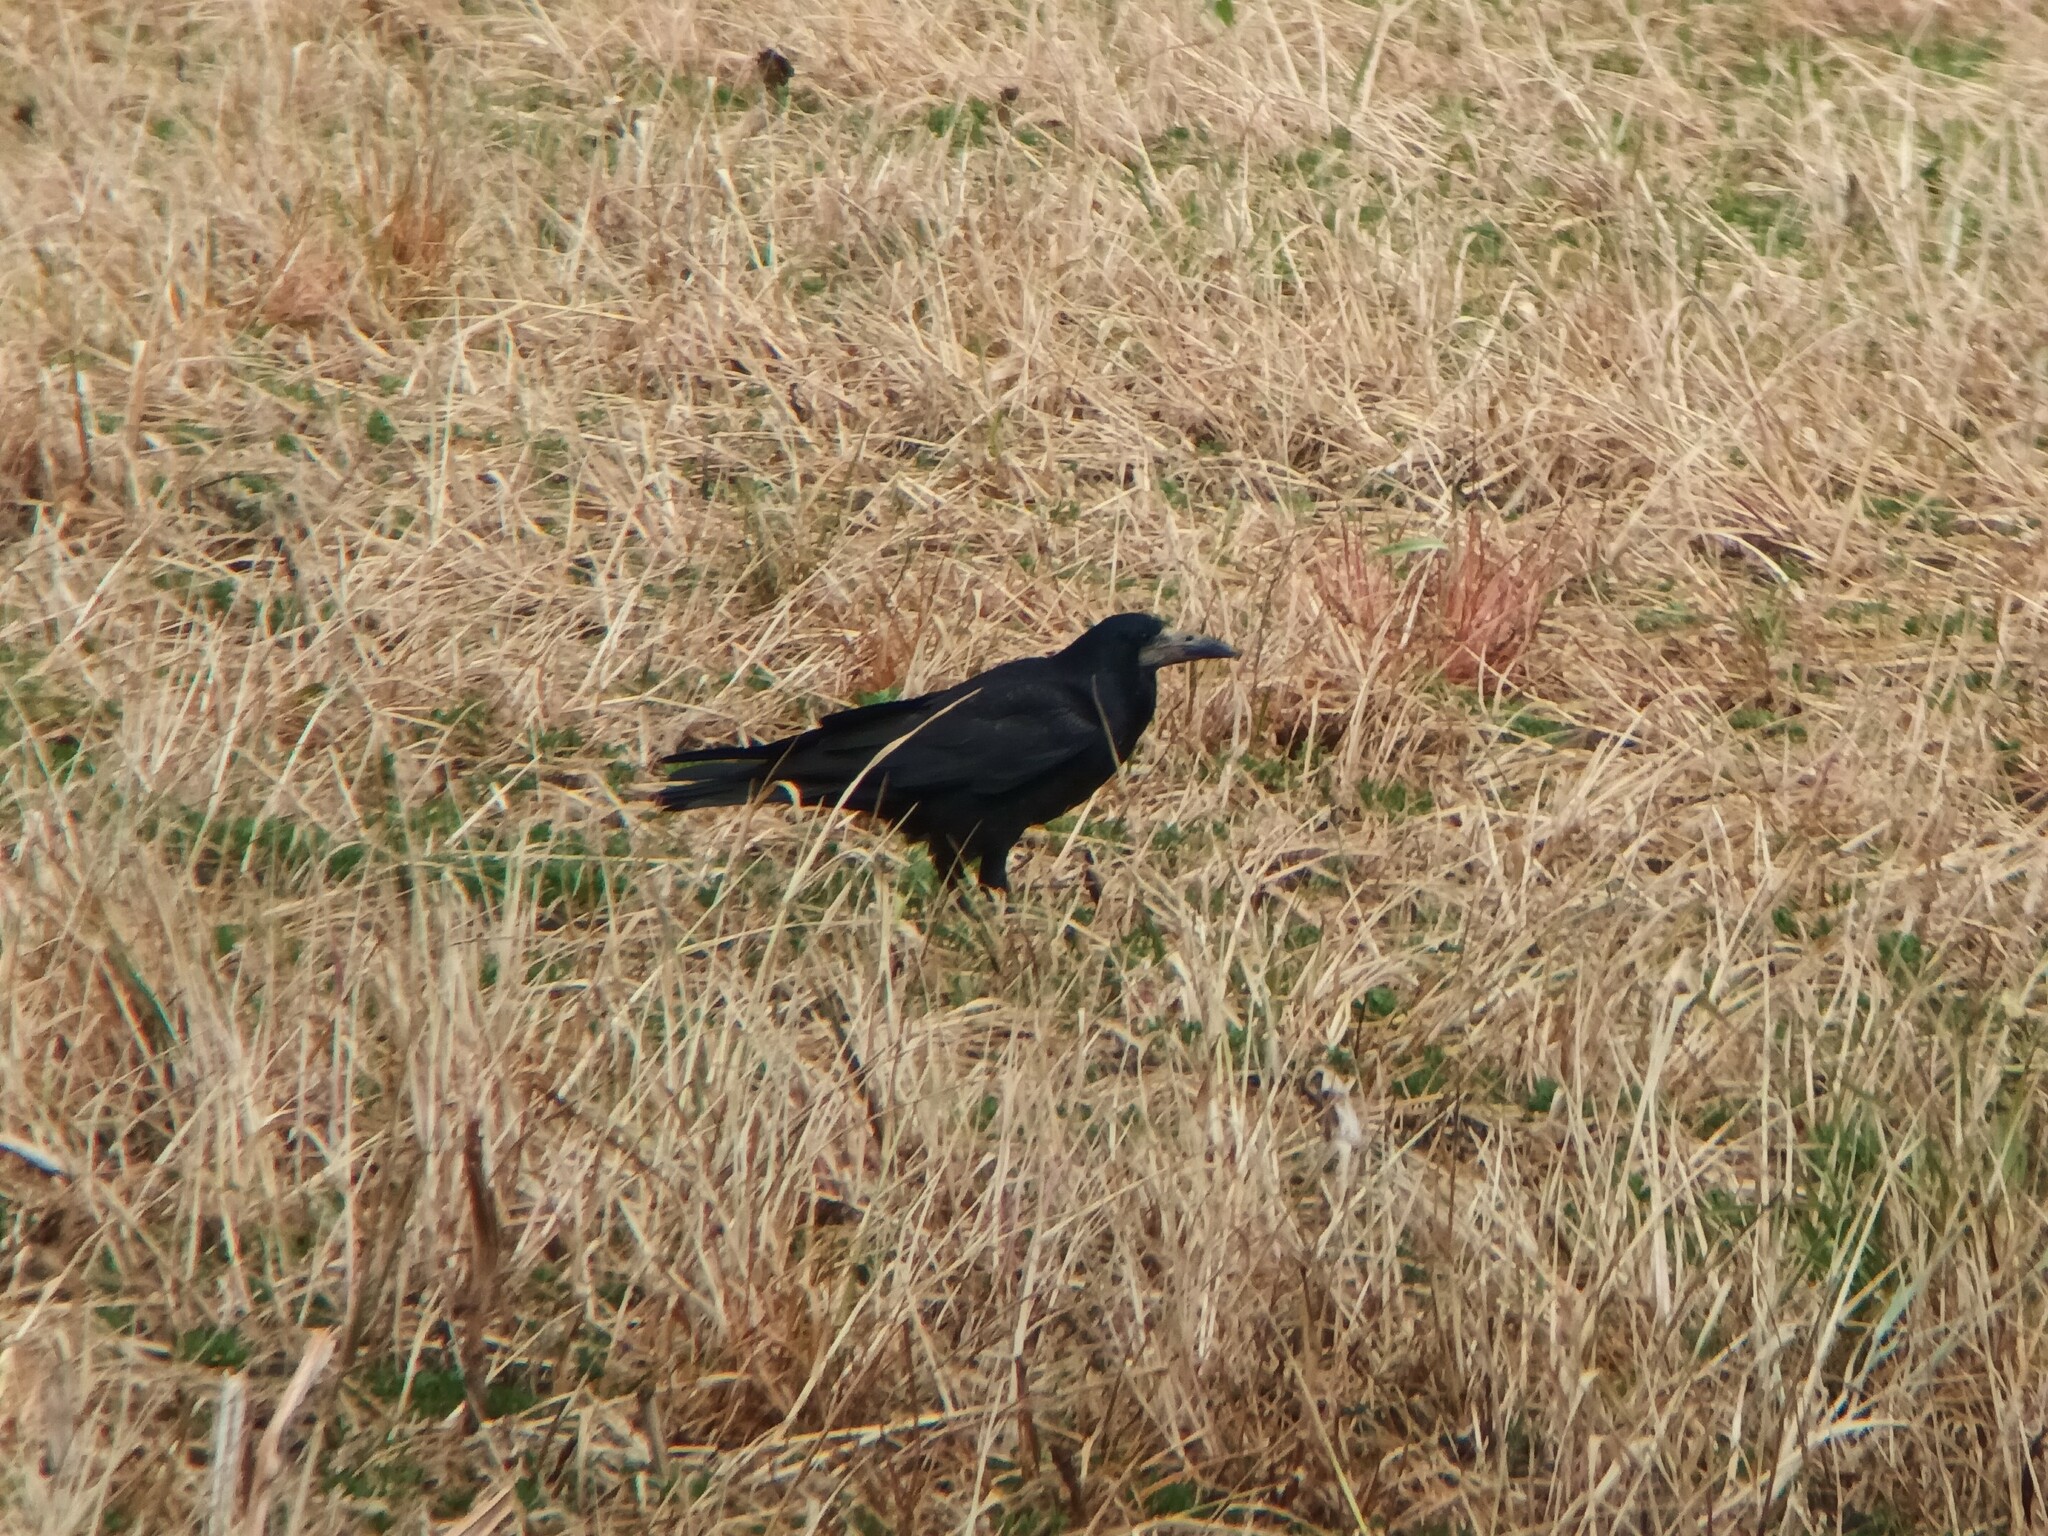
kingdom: Animalia
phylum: Chordata
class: Aves
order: Passeriformes
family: Corvidae
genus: Corvus
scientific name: Corvus frugilegus
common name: Rook
